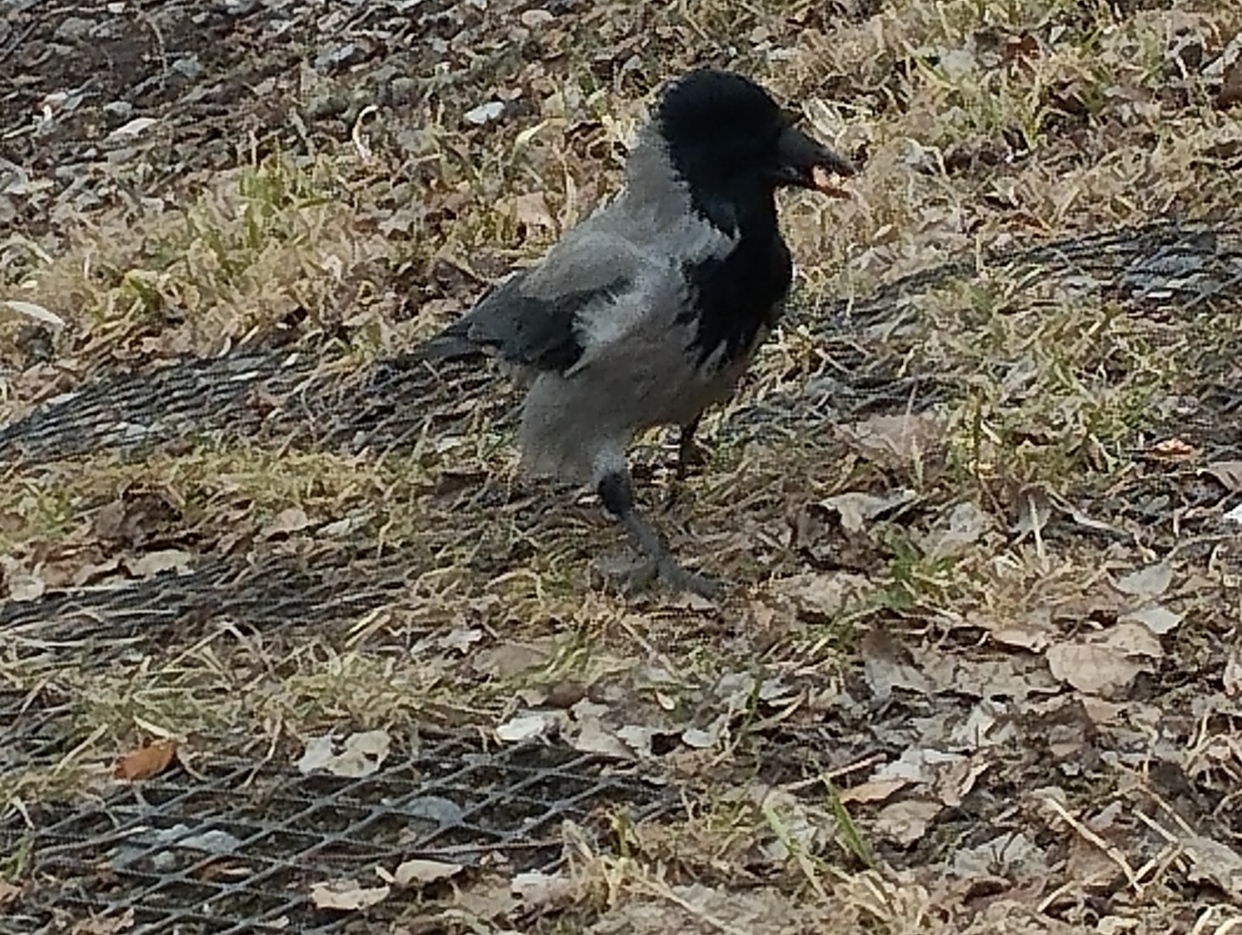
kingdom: Animalia
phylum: Chordata
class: Aves
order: Passeriformes
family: Corvidae
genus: Corvus
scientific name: Corvus cornix
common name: Hooded crow
